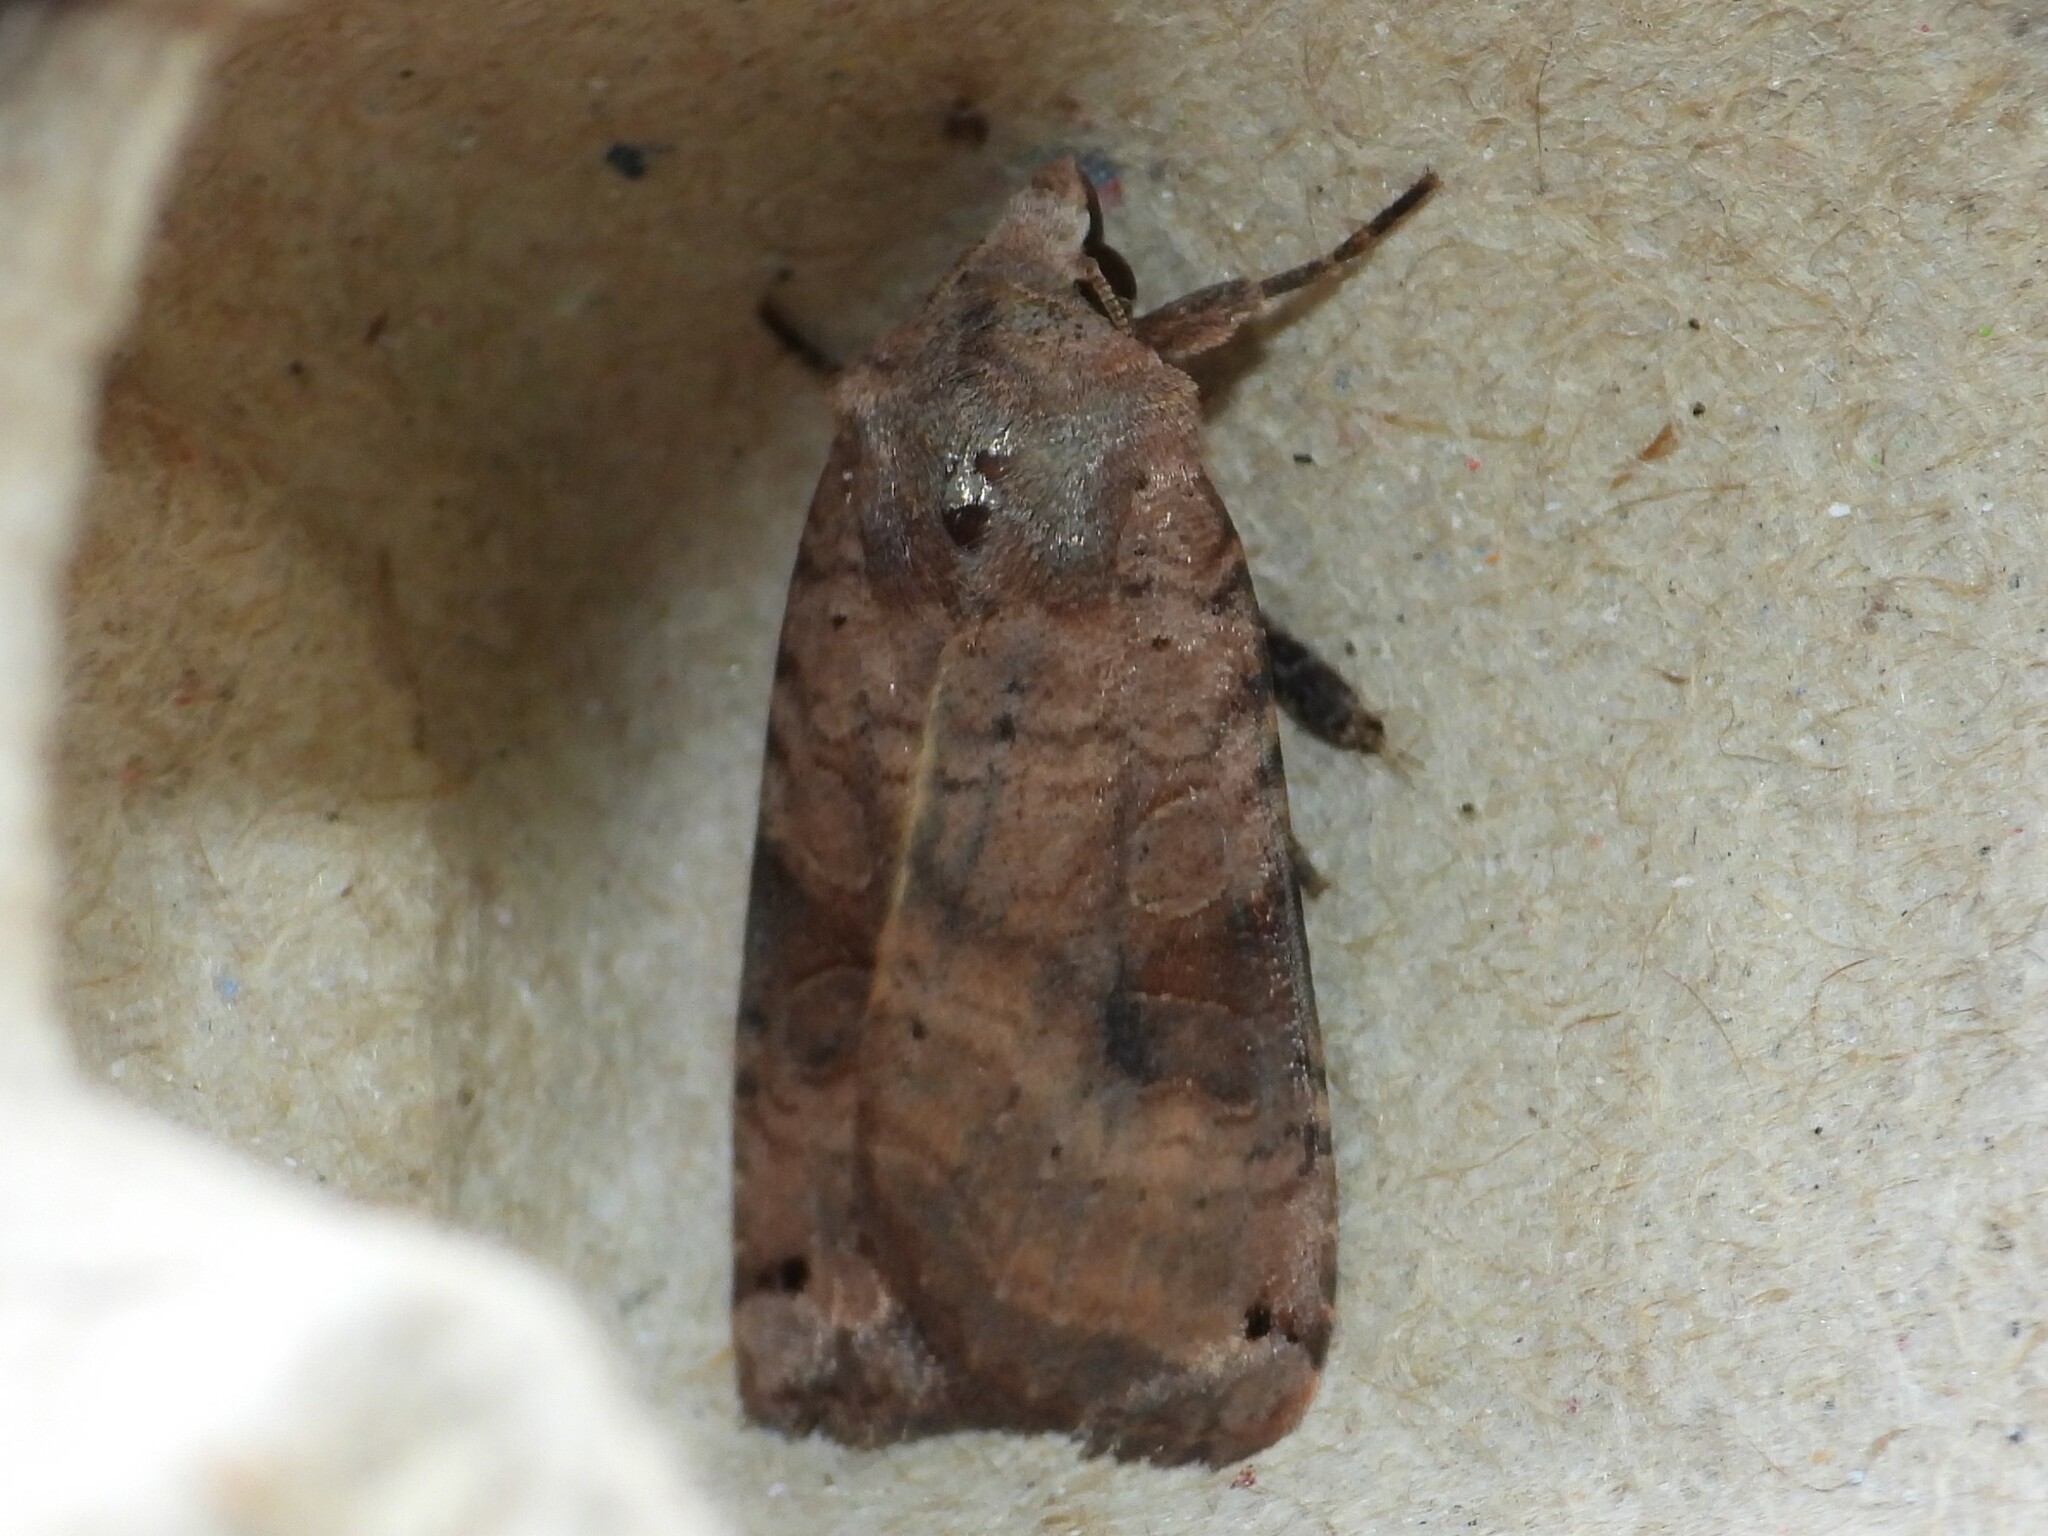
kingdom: Animalia
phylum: Arthropoda
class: Insecta
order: Lepidoptera
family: Noctuidae
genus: Xestia
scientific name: Xestia smithii
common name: Smith's dart
